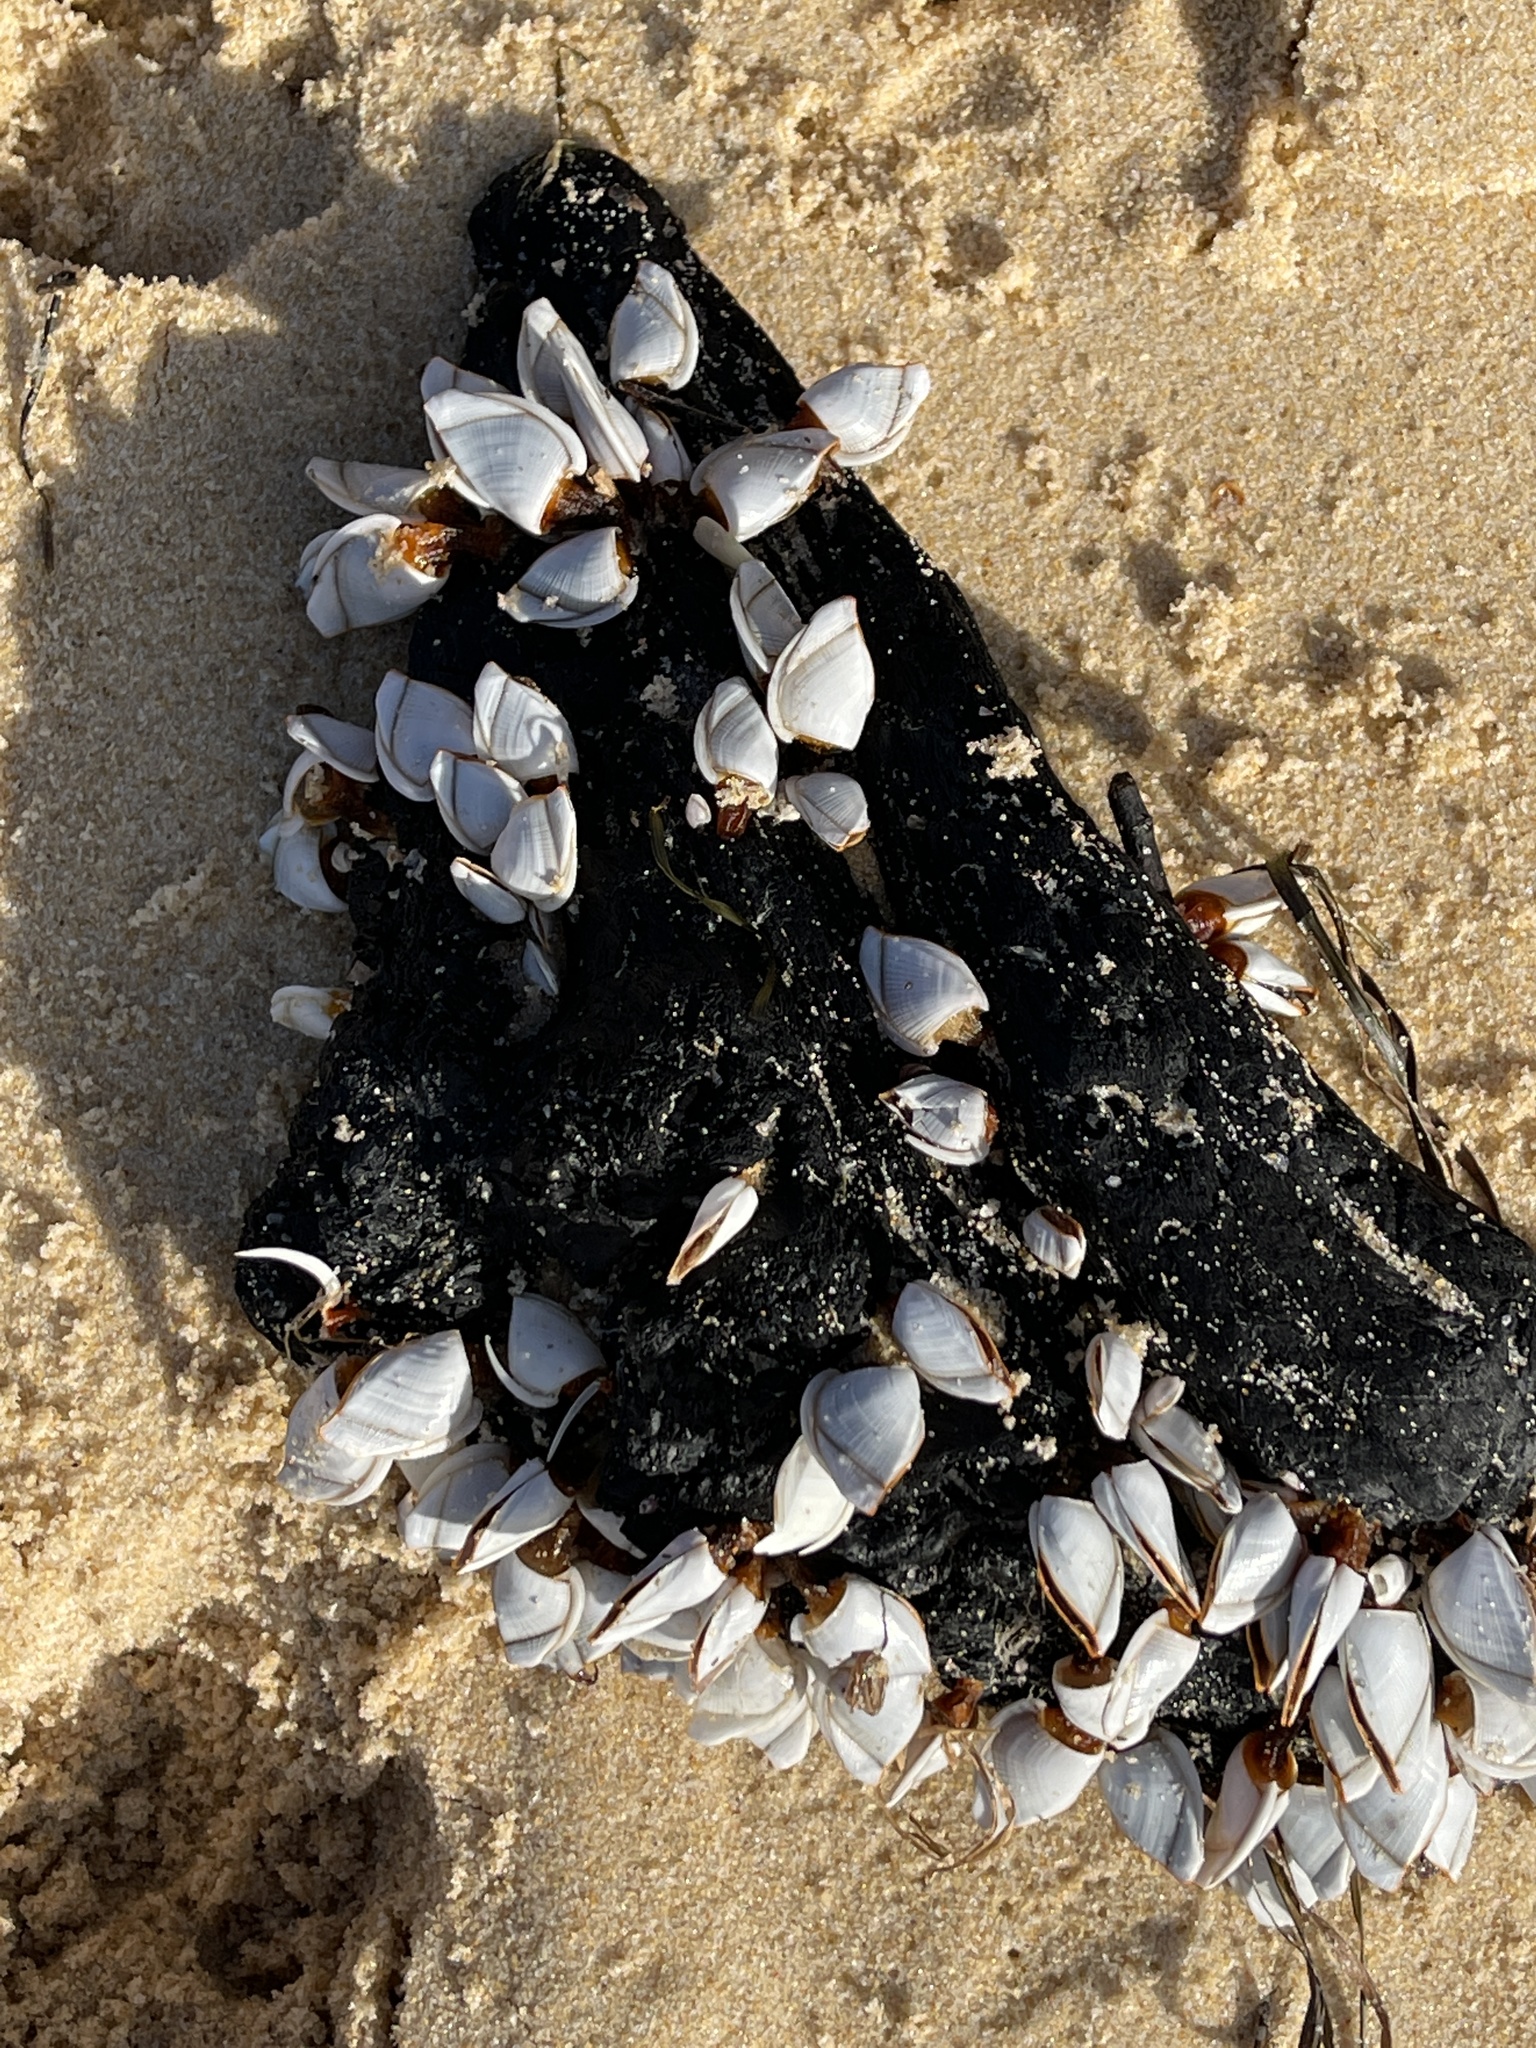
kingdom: Animalia
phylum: Arthropoda
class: Maxillopoda
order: Pedunculata
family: Lepadidae
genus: Lepas
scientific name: Lepas anserifera
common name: Goose barnacle
